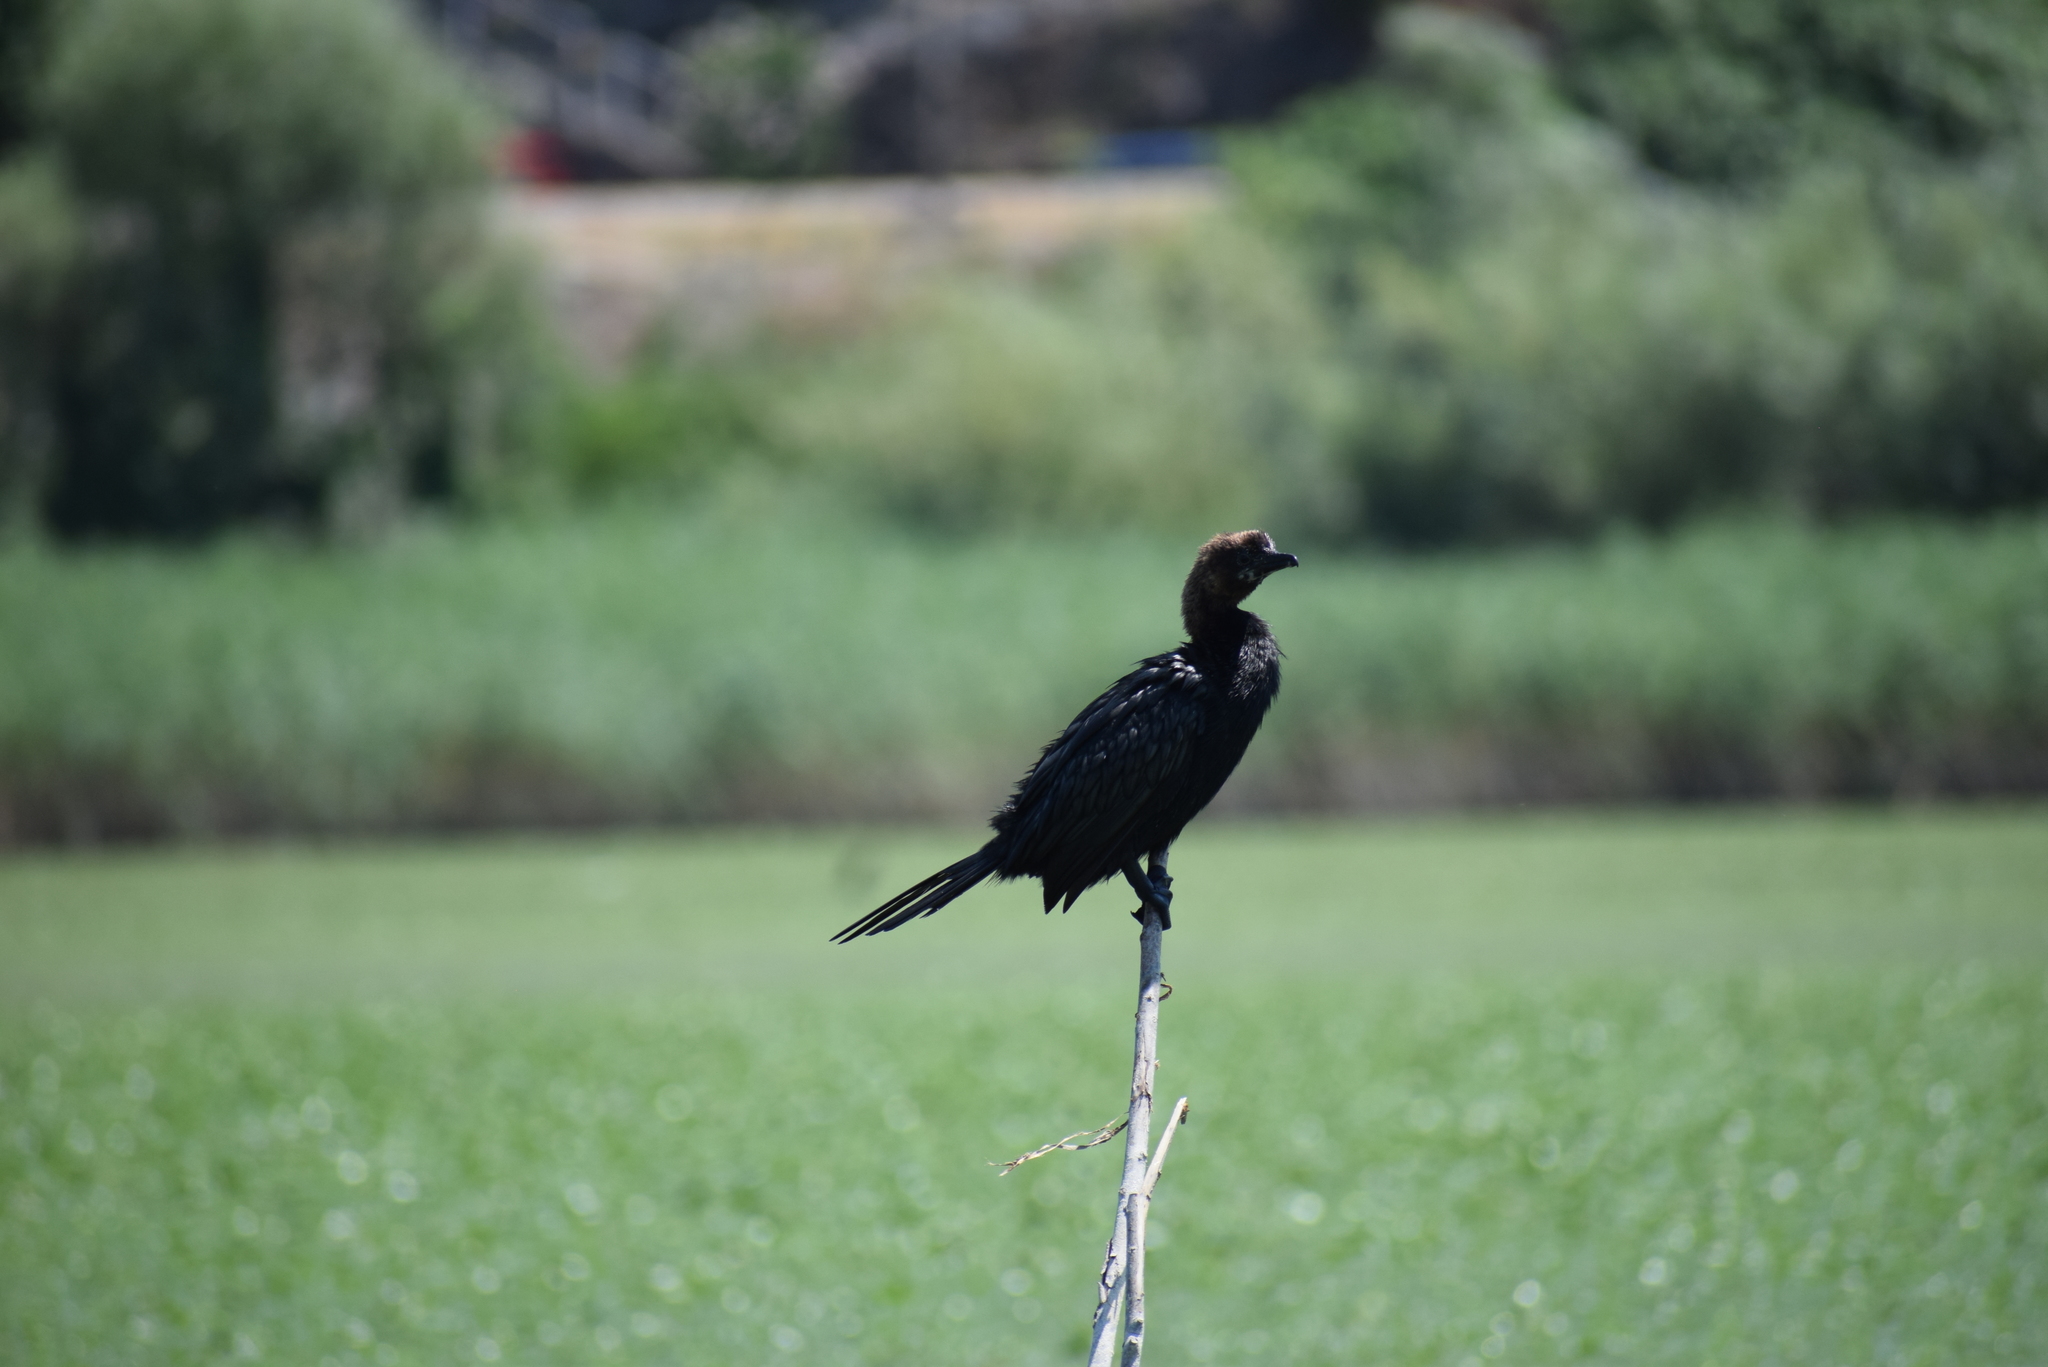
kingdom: Animalia
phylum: Chordata
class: Aves
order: Suliformes
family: Phalacrocoracidae
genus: Microcarbo
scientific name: Microcarbo pygmaeus
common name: Pygmy cormorant
